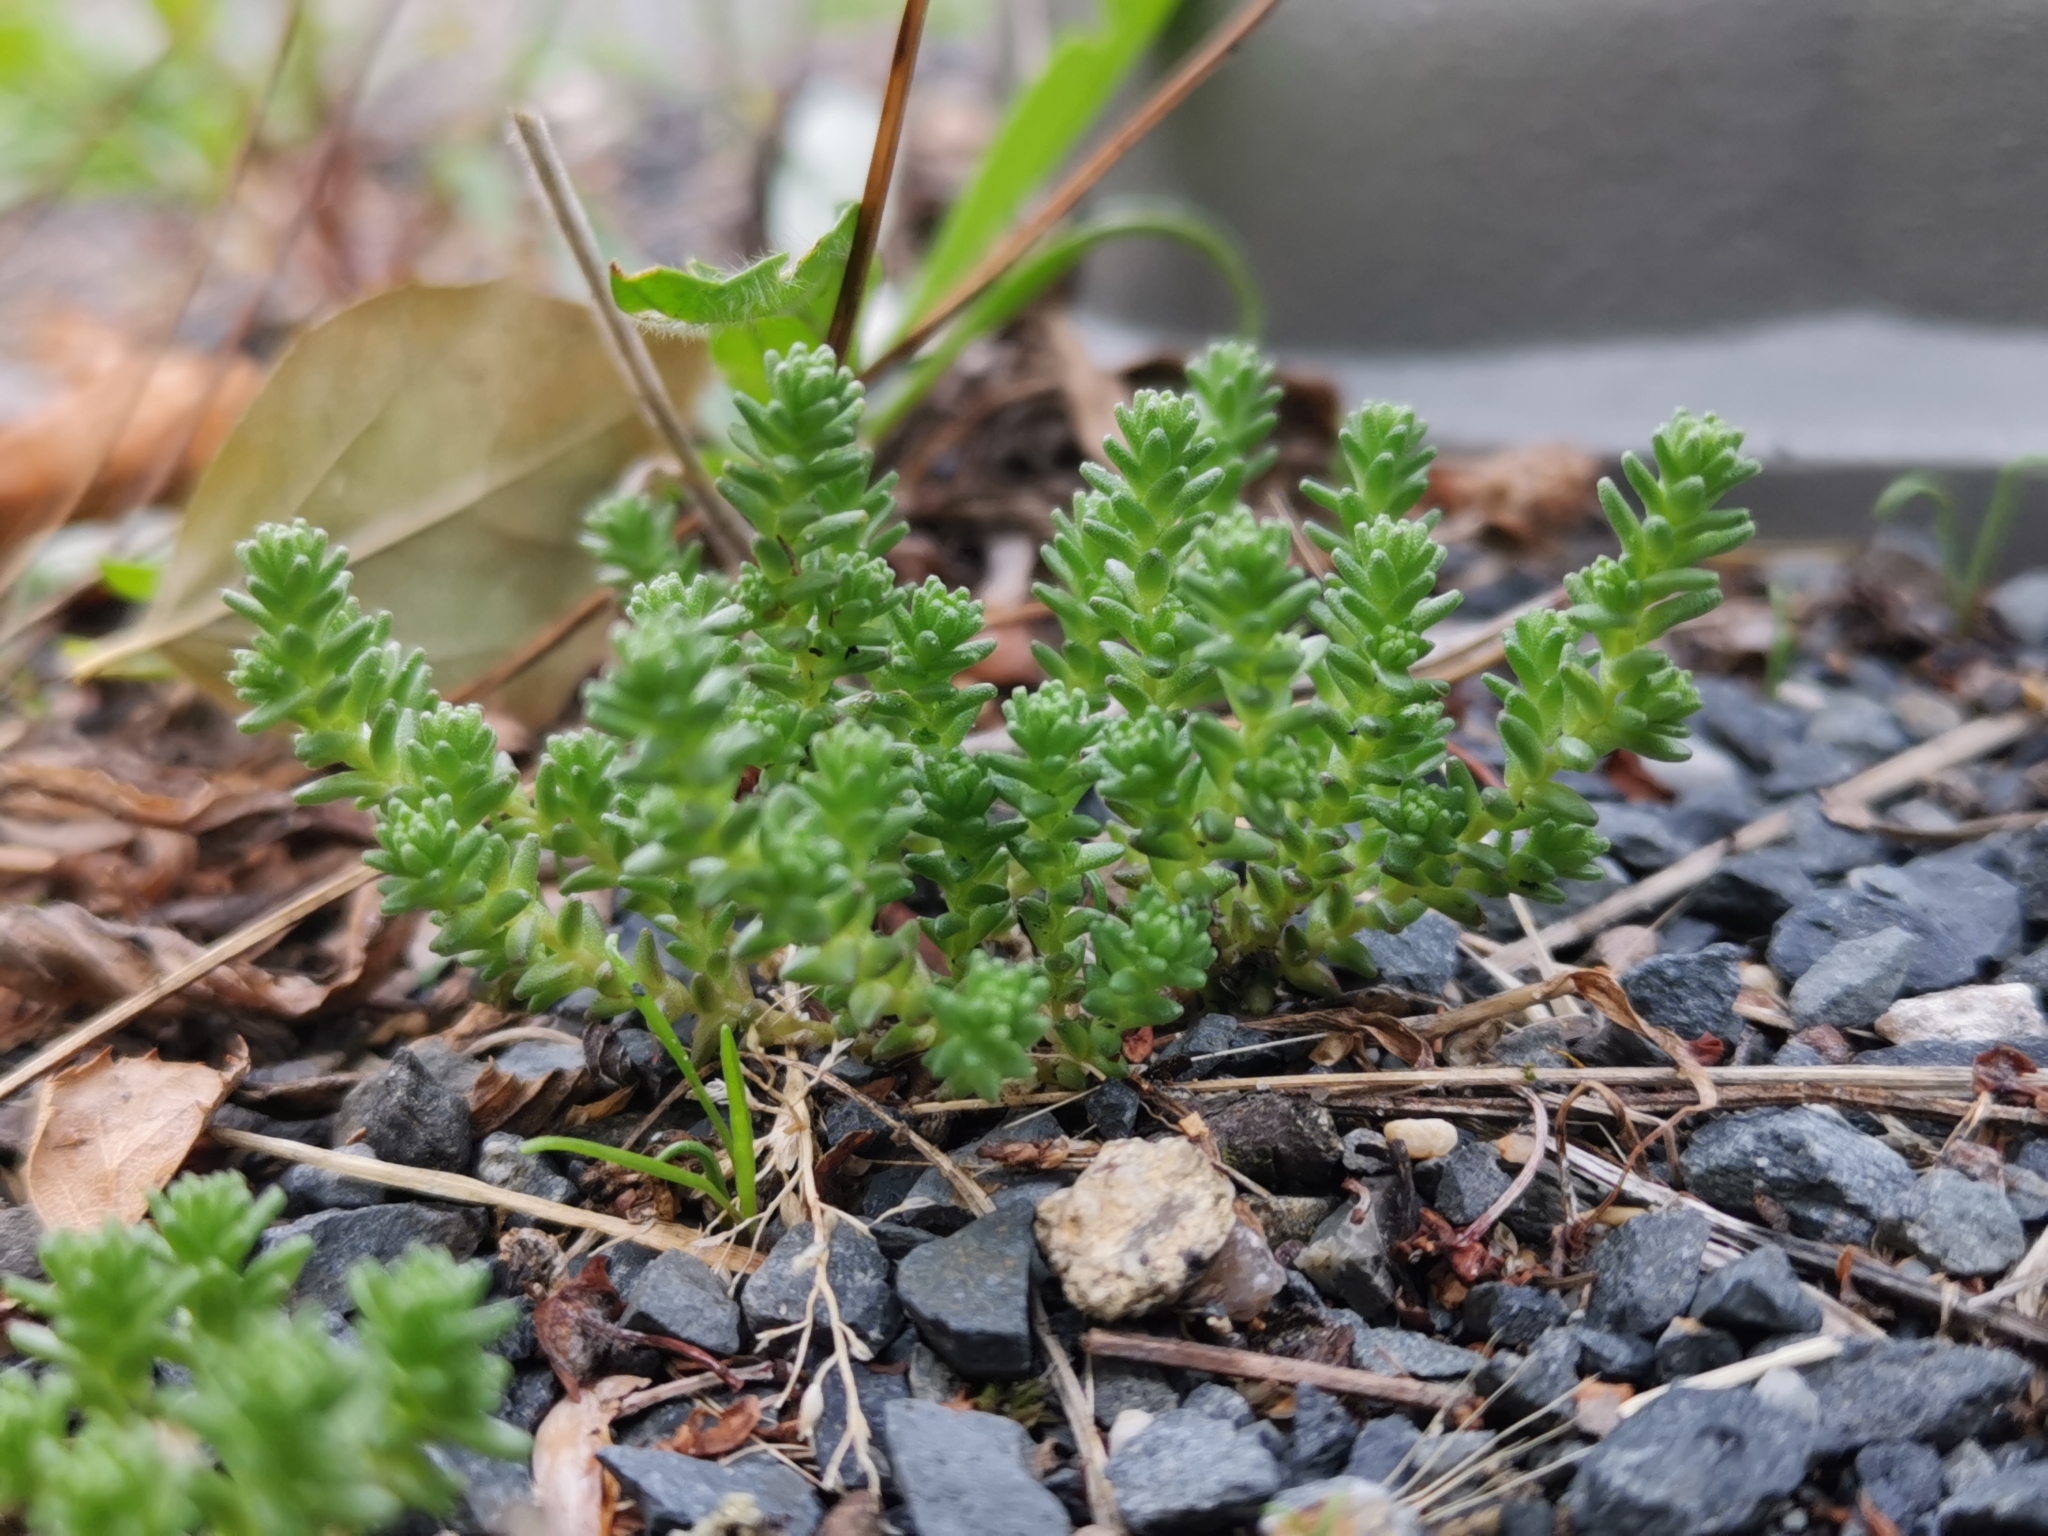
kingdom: Plantae
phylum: Tracheophyta
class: Magnoliopsida
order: Saxifragales
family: Crassulaceae
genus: Sedum
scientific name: Sedum acre
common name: Biting stonecrop
